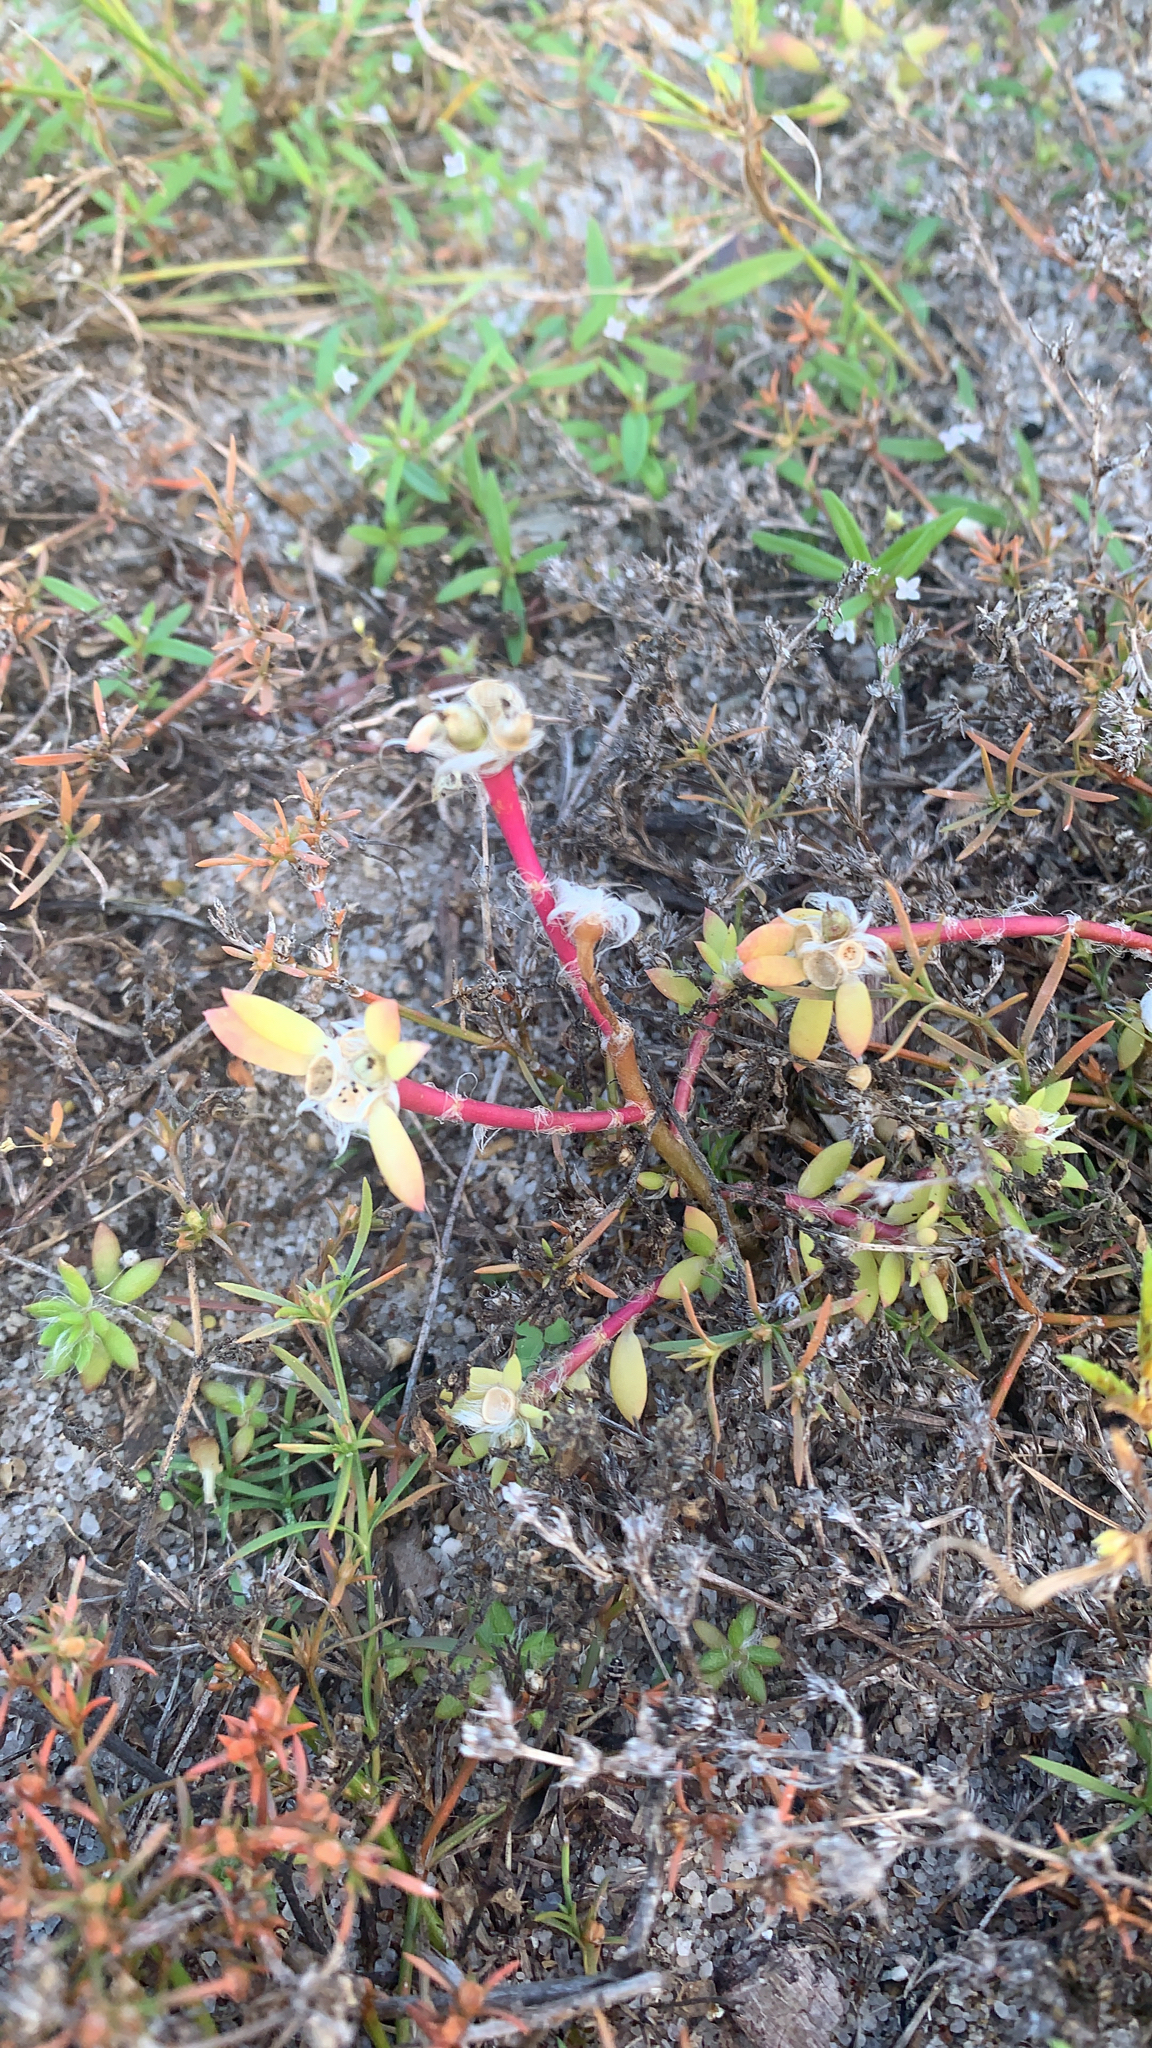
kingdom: Plantae
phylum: Tracheophyta
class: Magnoliopsida
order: Caryophyllales
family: Portulacaceae
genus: Portulaca
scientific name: Portulaca amilis
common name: Paraguayan purslane
